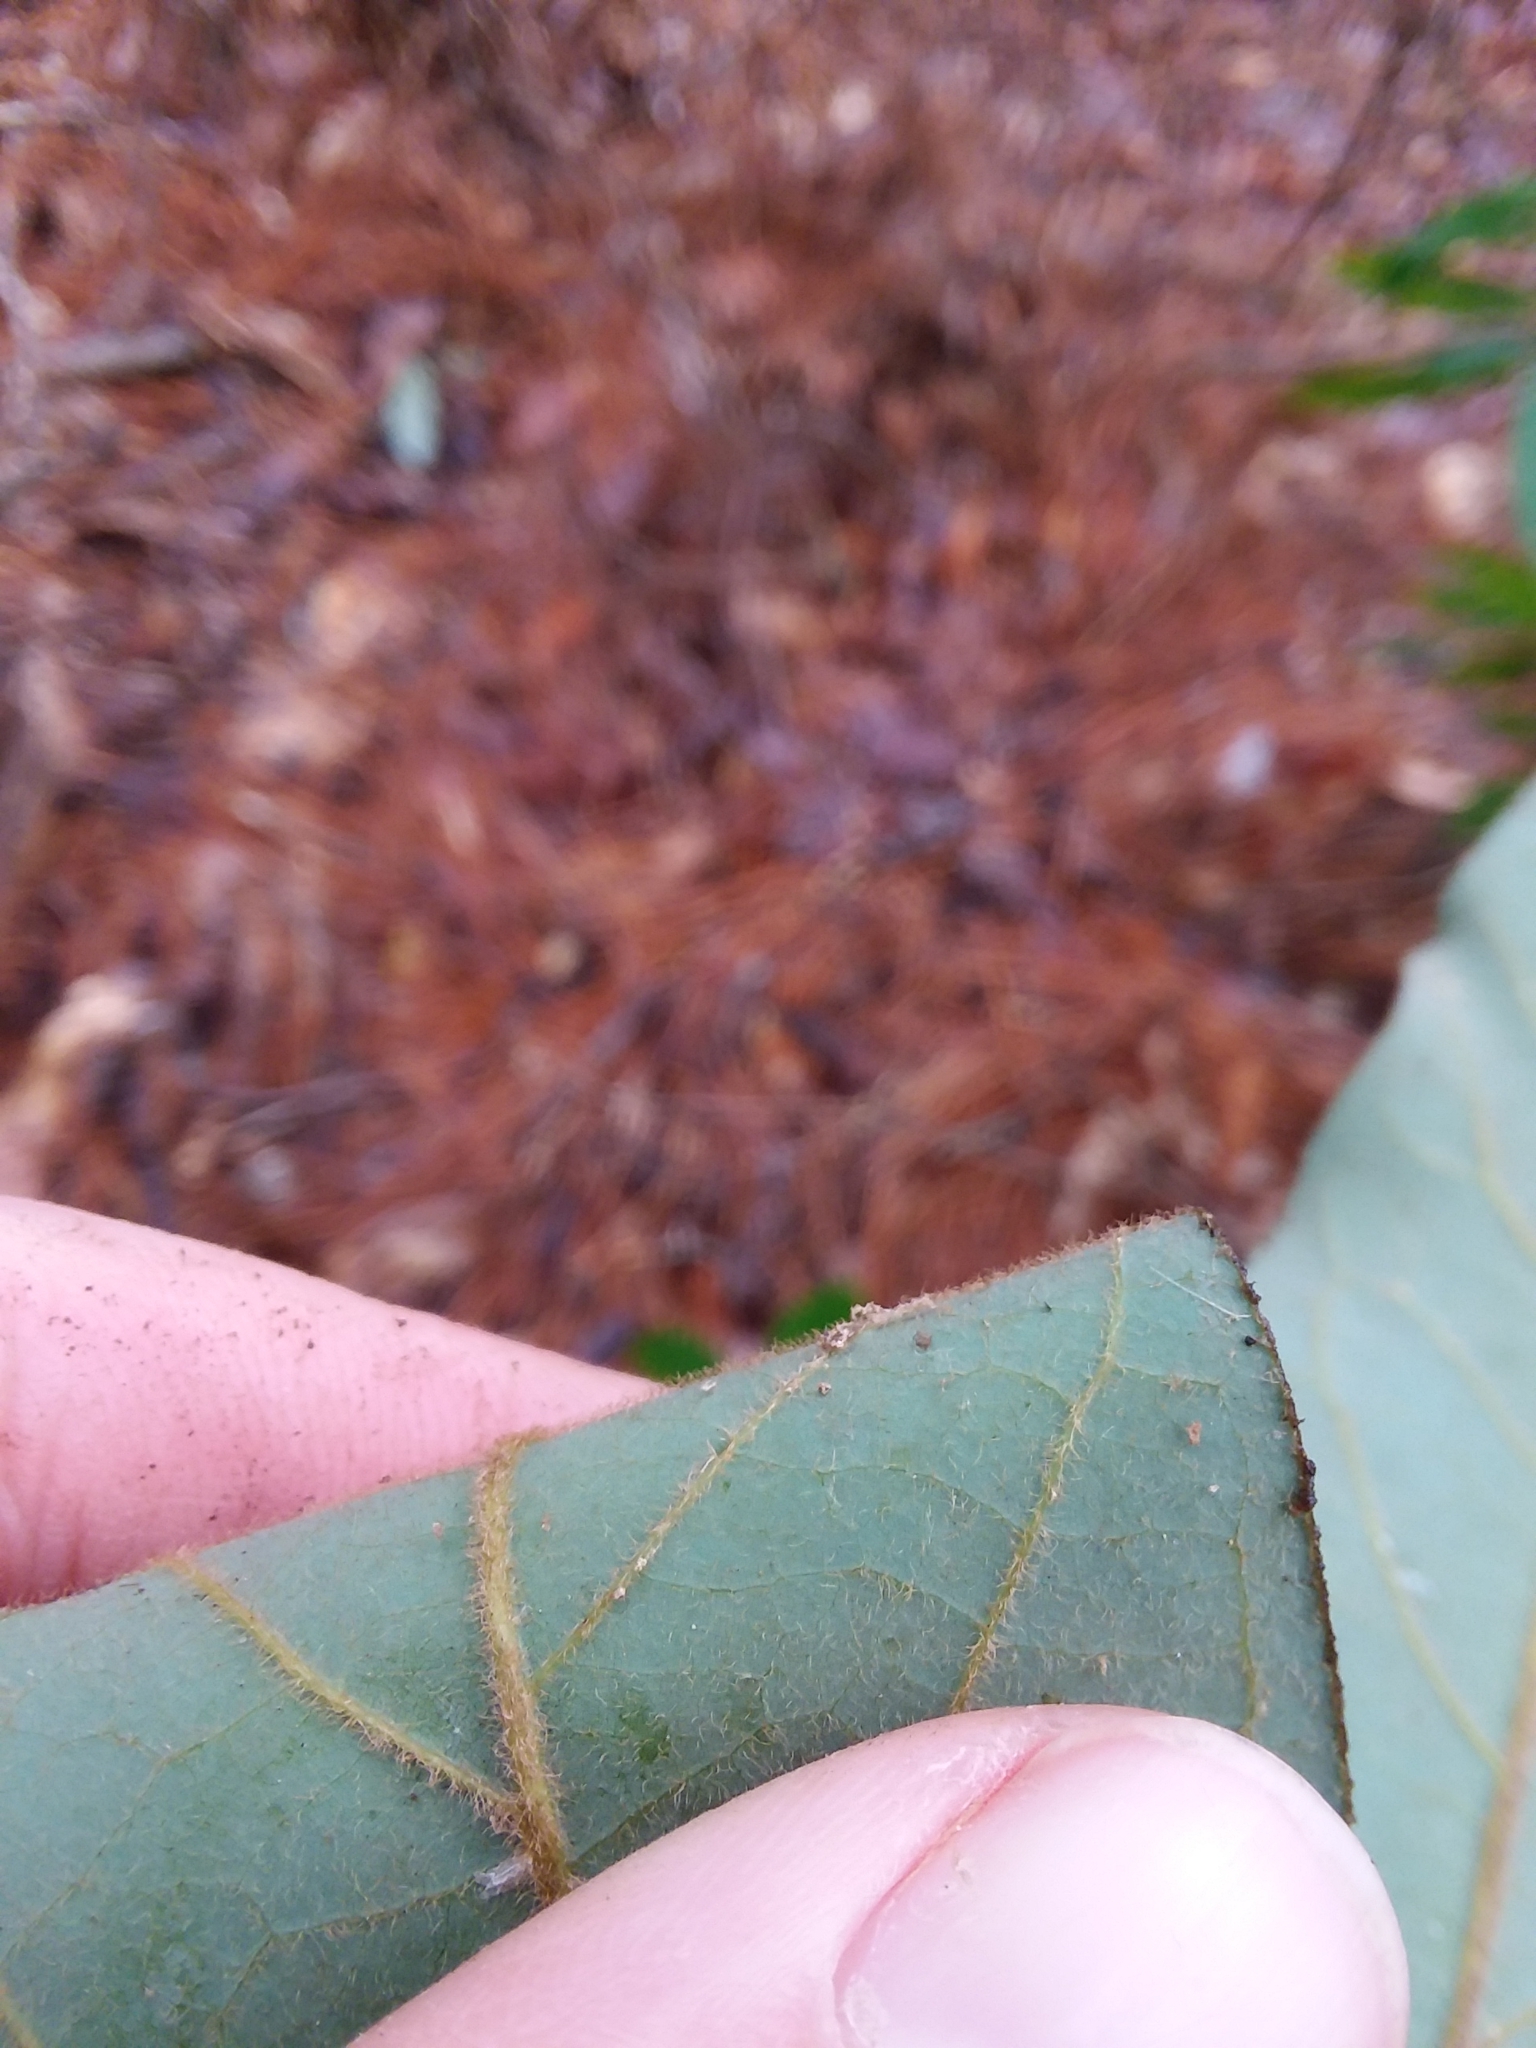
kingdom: Plantae
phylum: Tracheophyta
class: Magnoliopsida
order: Laurales
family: Lauraceae
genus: Persea
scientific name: Persea palustris
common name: Swampbay
